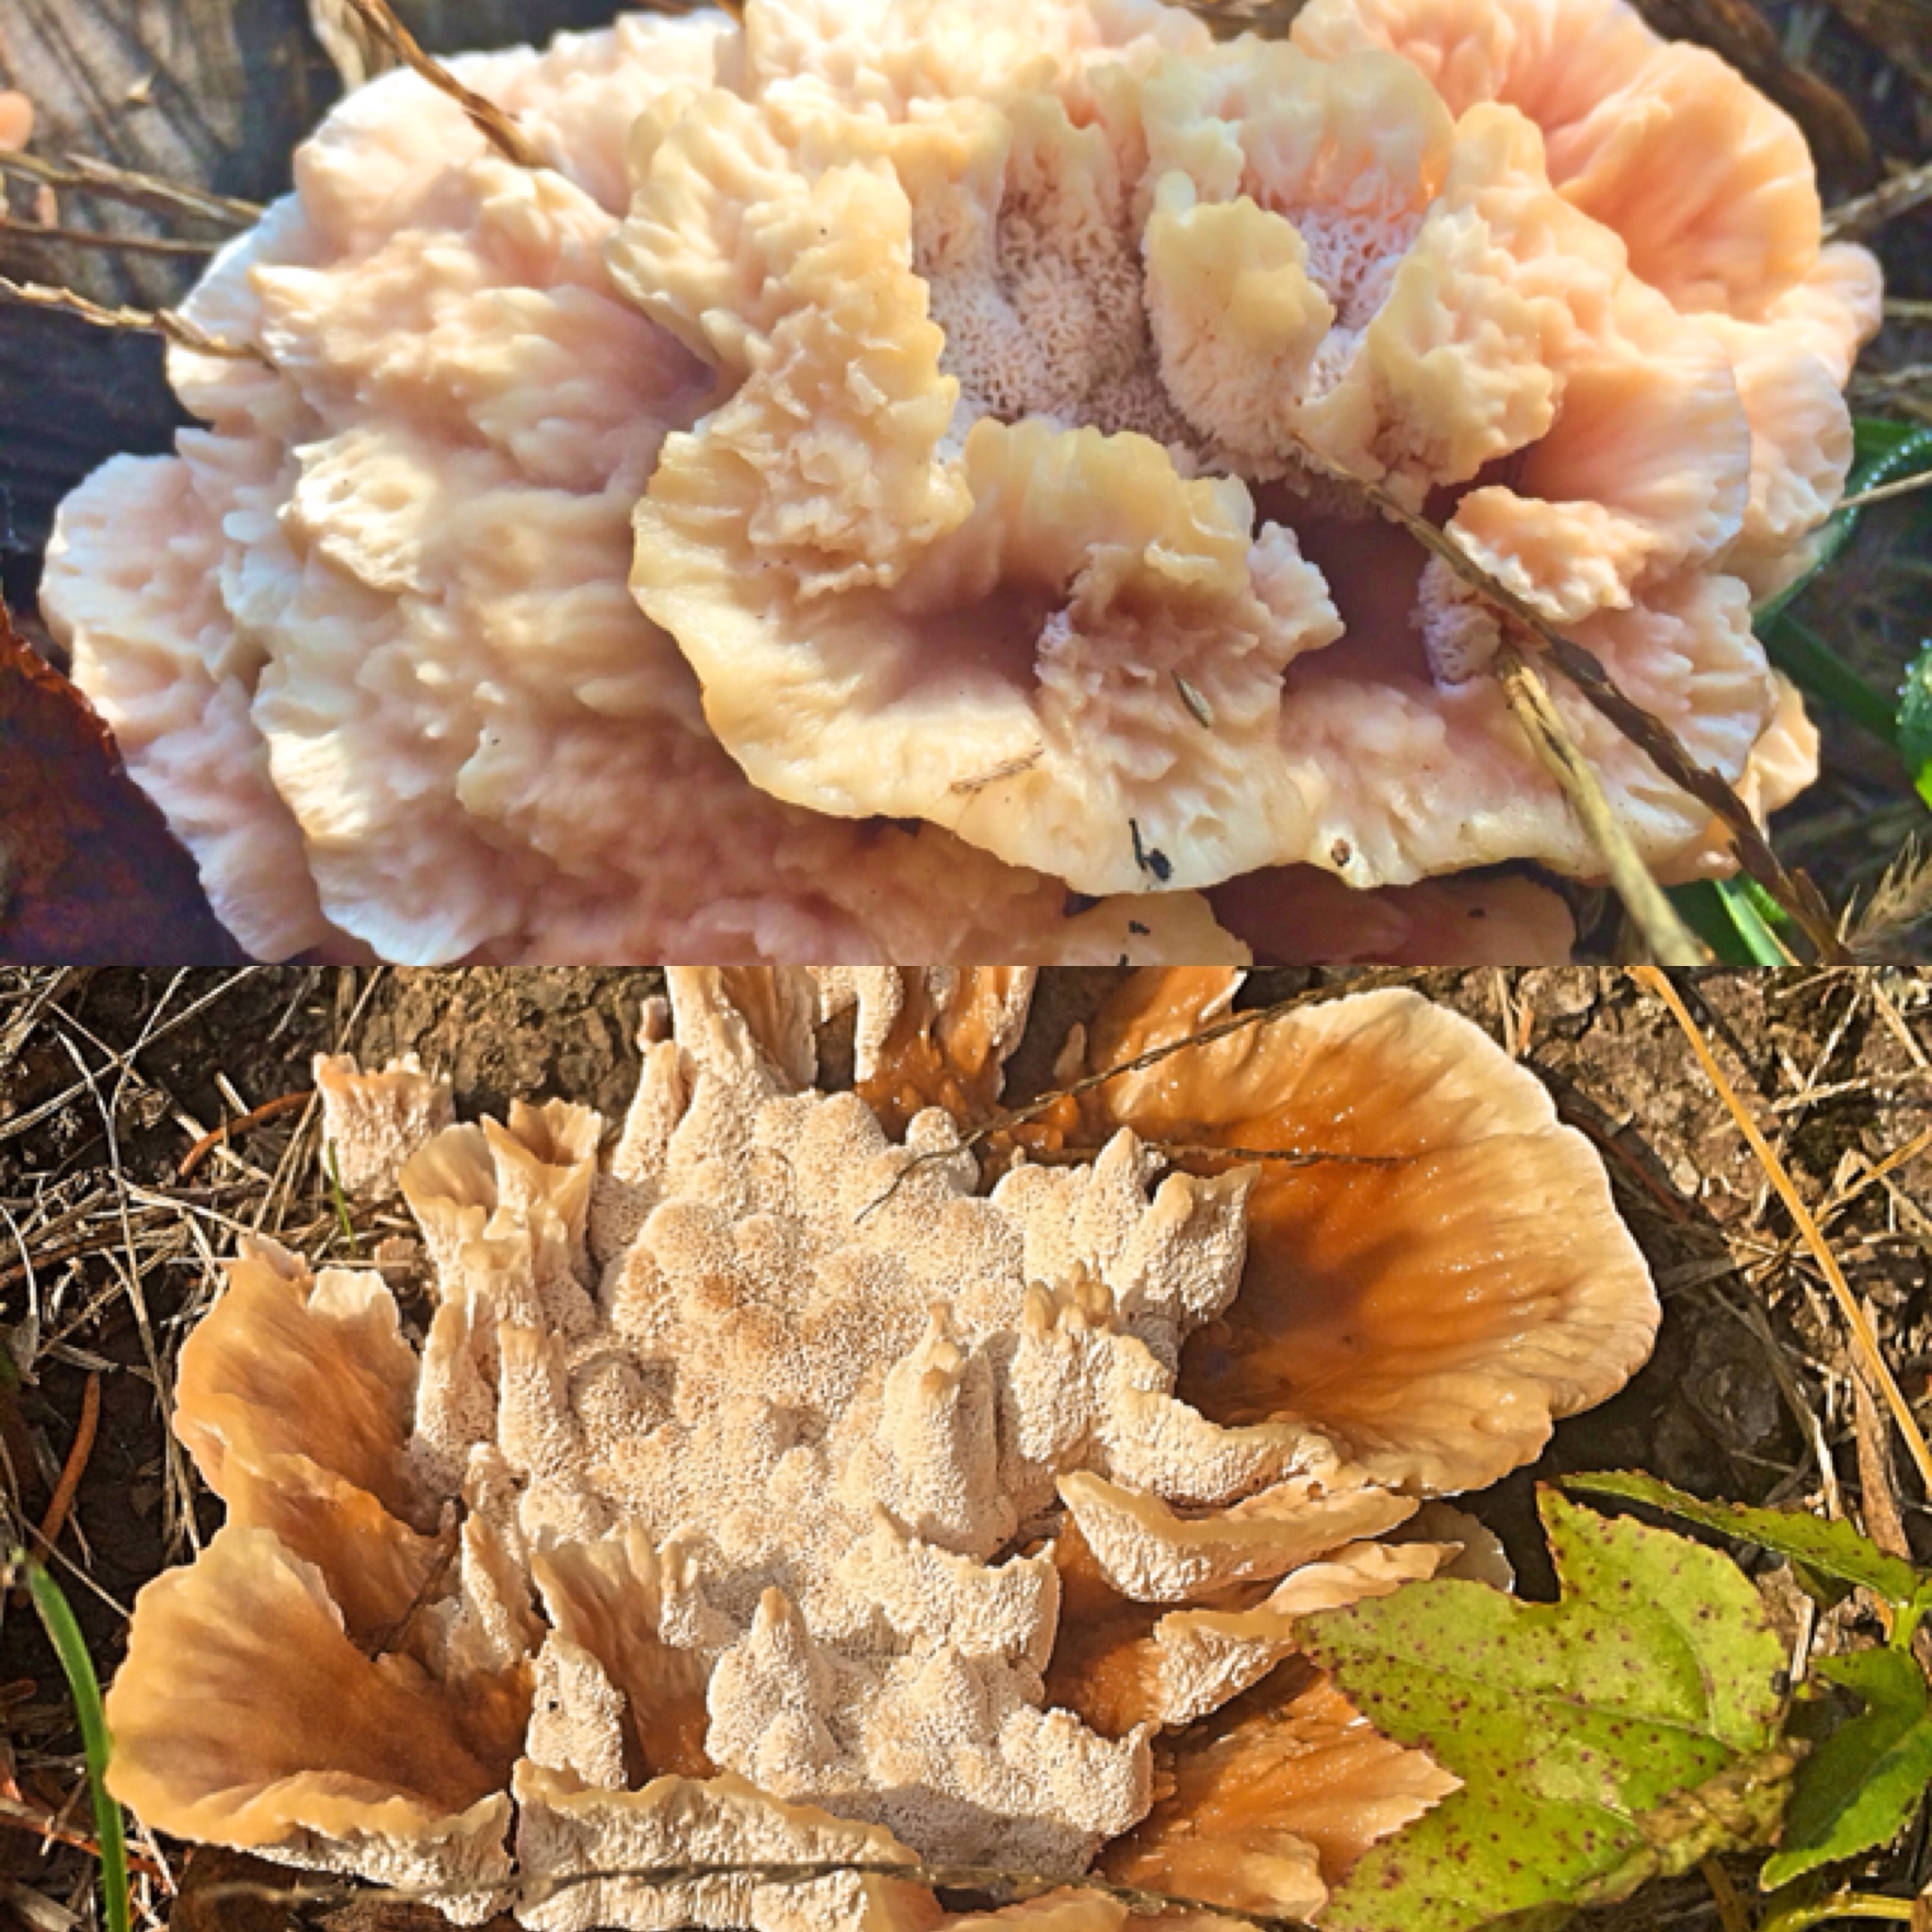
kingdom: Fungi
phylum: Basidiomycota
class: Agaricomycetes
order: Polyporales
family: Podoscyphaceae
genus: Abortiporus
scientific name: Abortiporus biennis
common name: Blushing rosette
